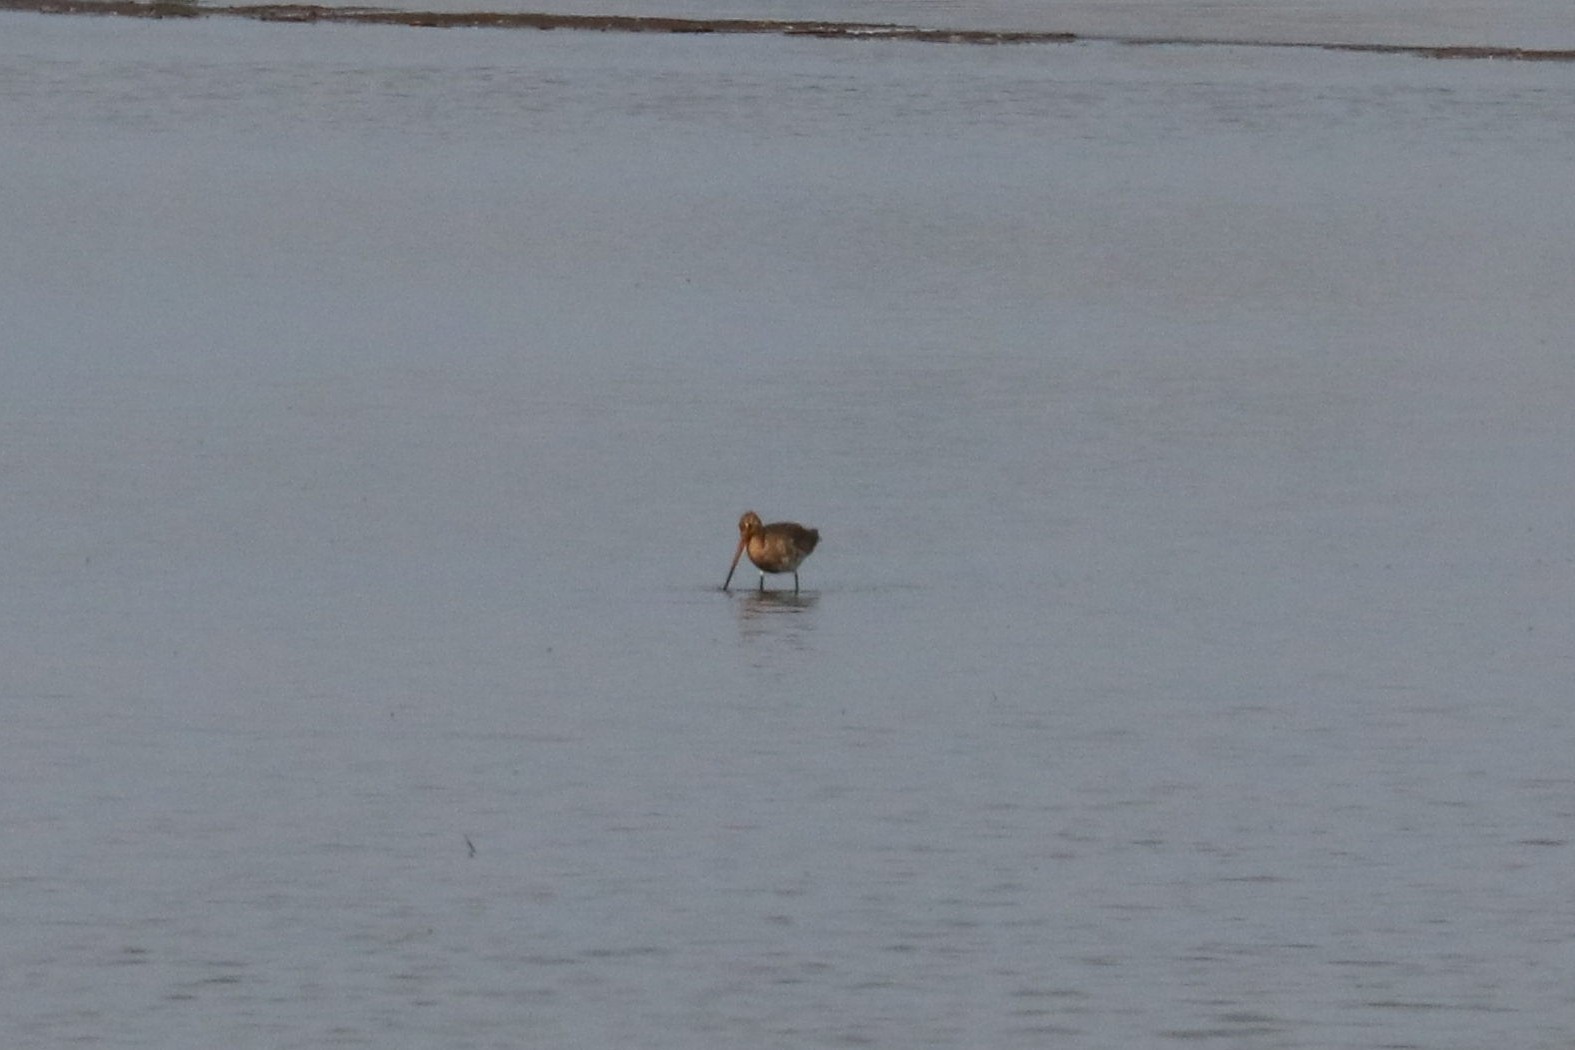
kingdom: Animalia
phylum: Chordata
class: Aves
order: Charadriiformes
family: Scolopacidae
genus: Limosa
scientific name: Limosa limosa
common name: Black-tailed godwit
